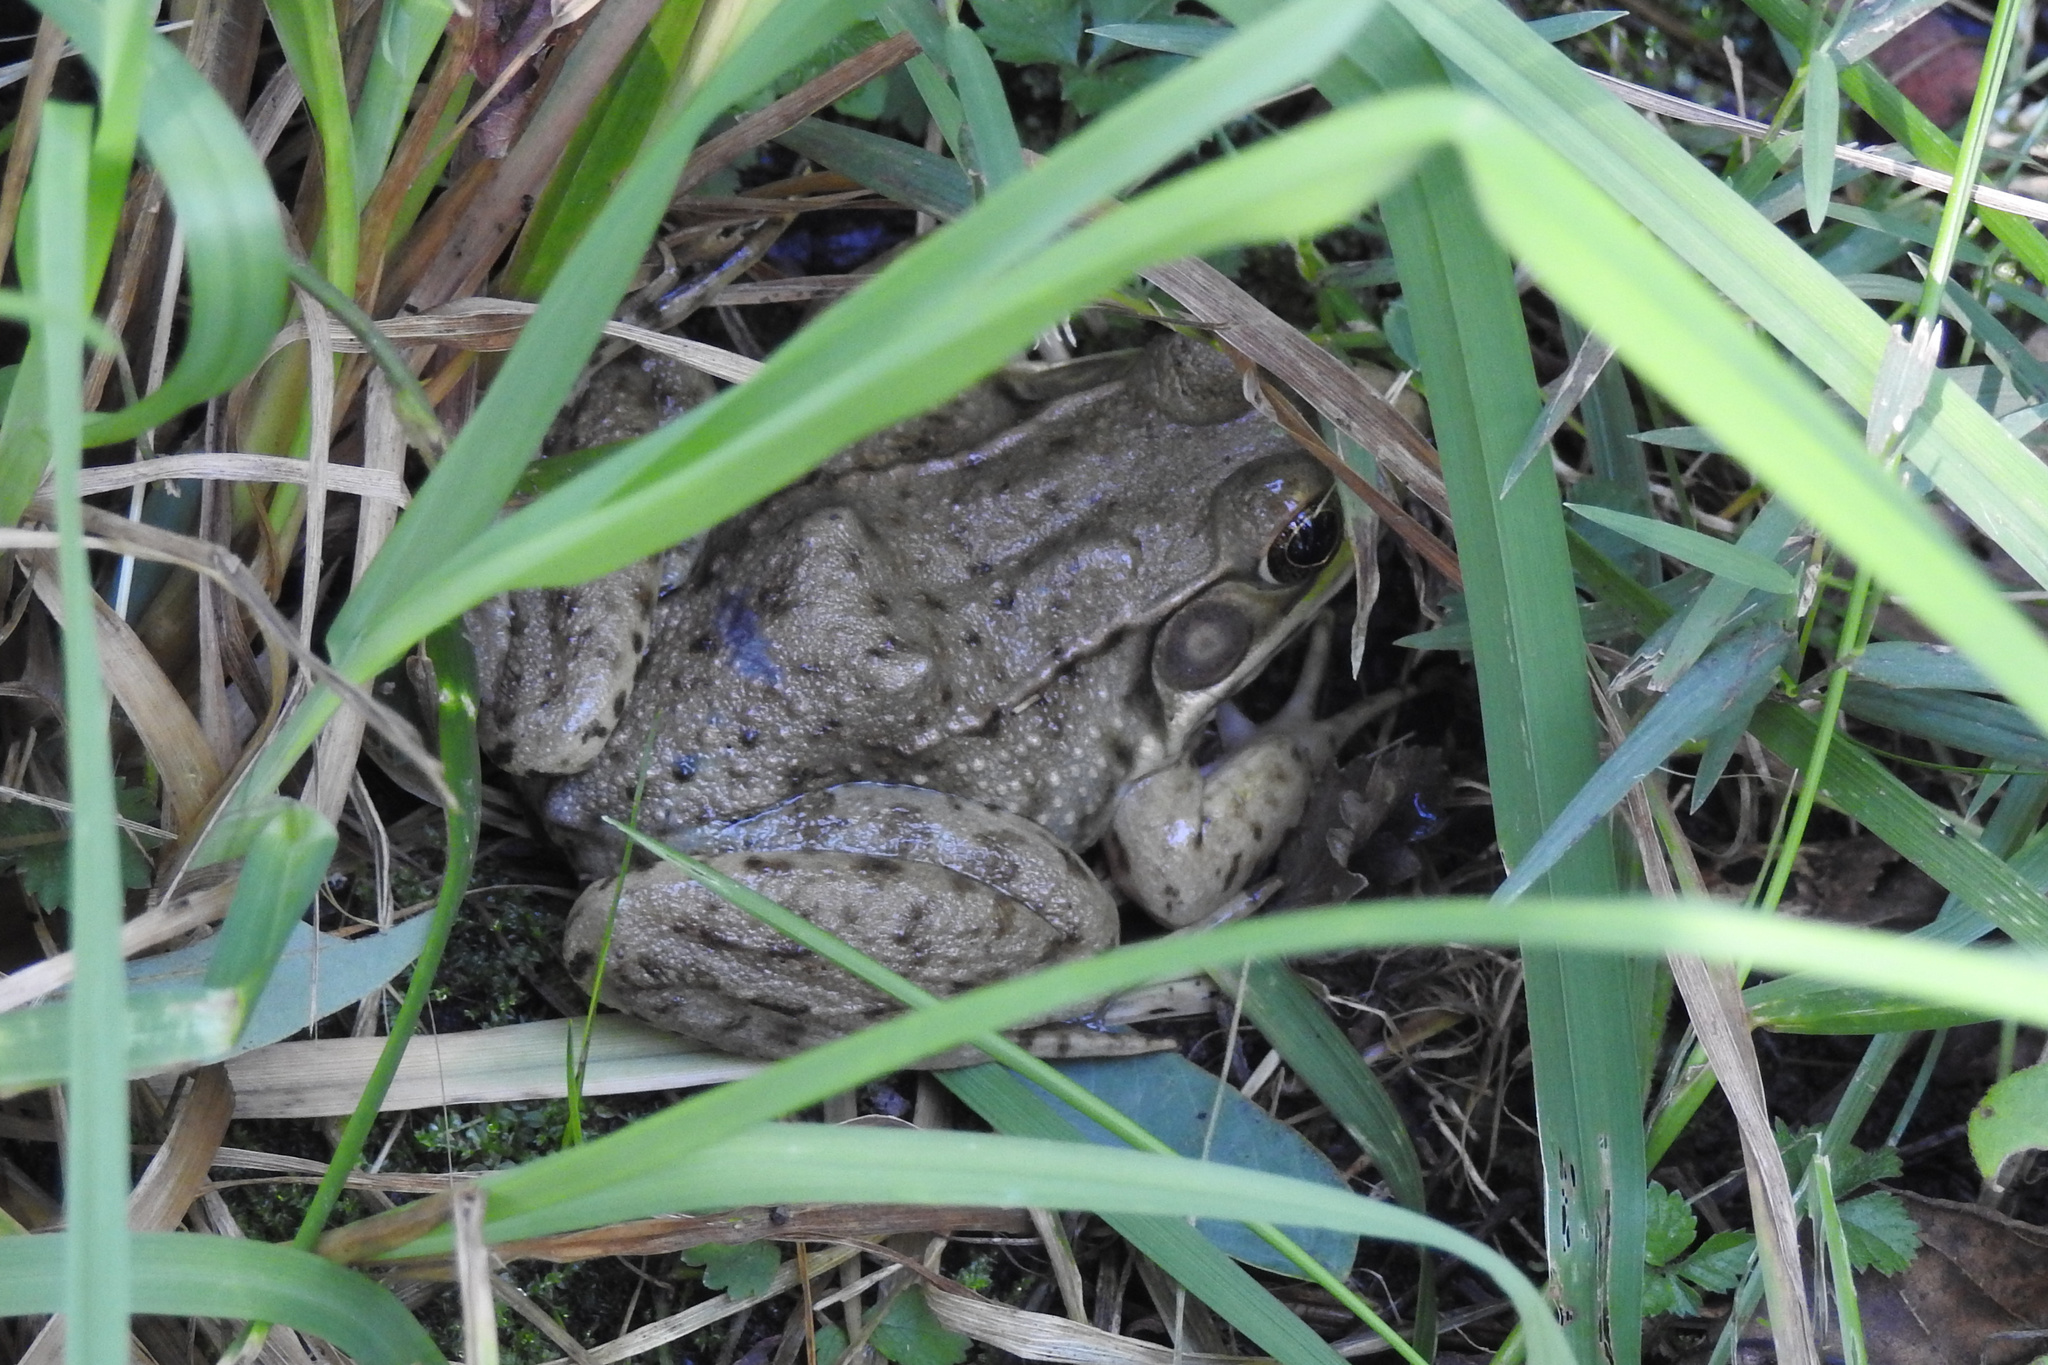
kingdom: Animalia
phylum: Chordata
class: Amphibia
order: Anura
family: Ranidae
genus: Lithobates
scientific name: Lithobates clamitans
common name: Green frog
